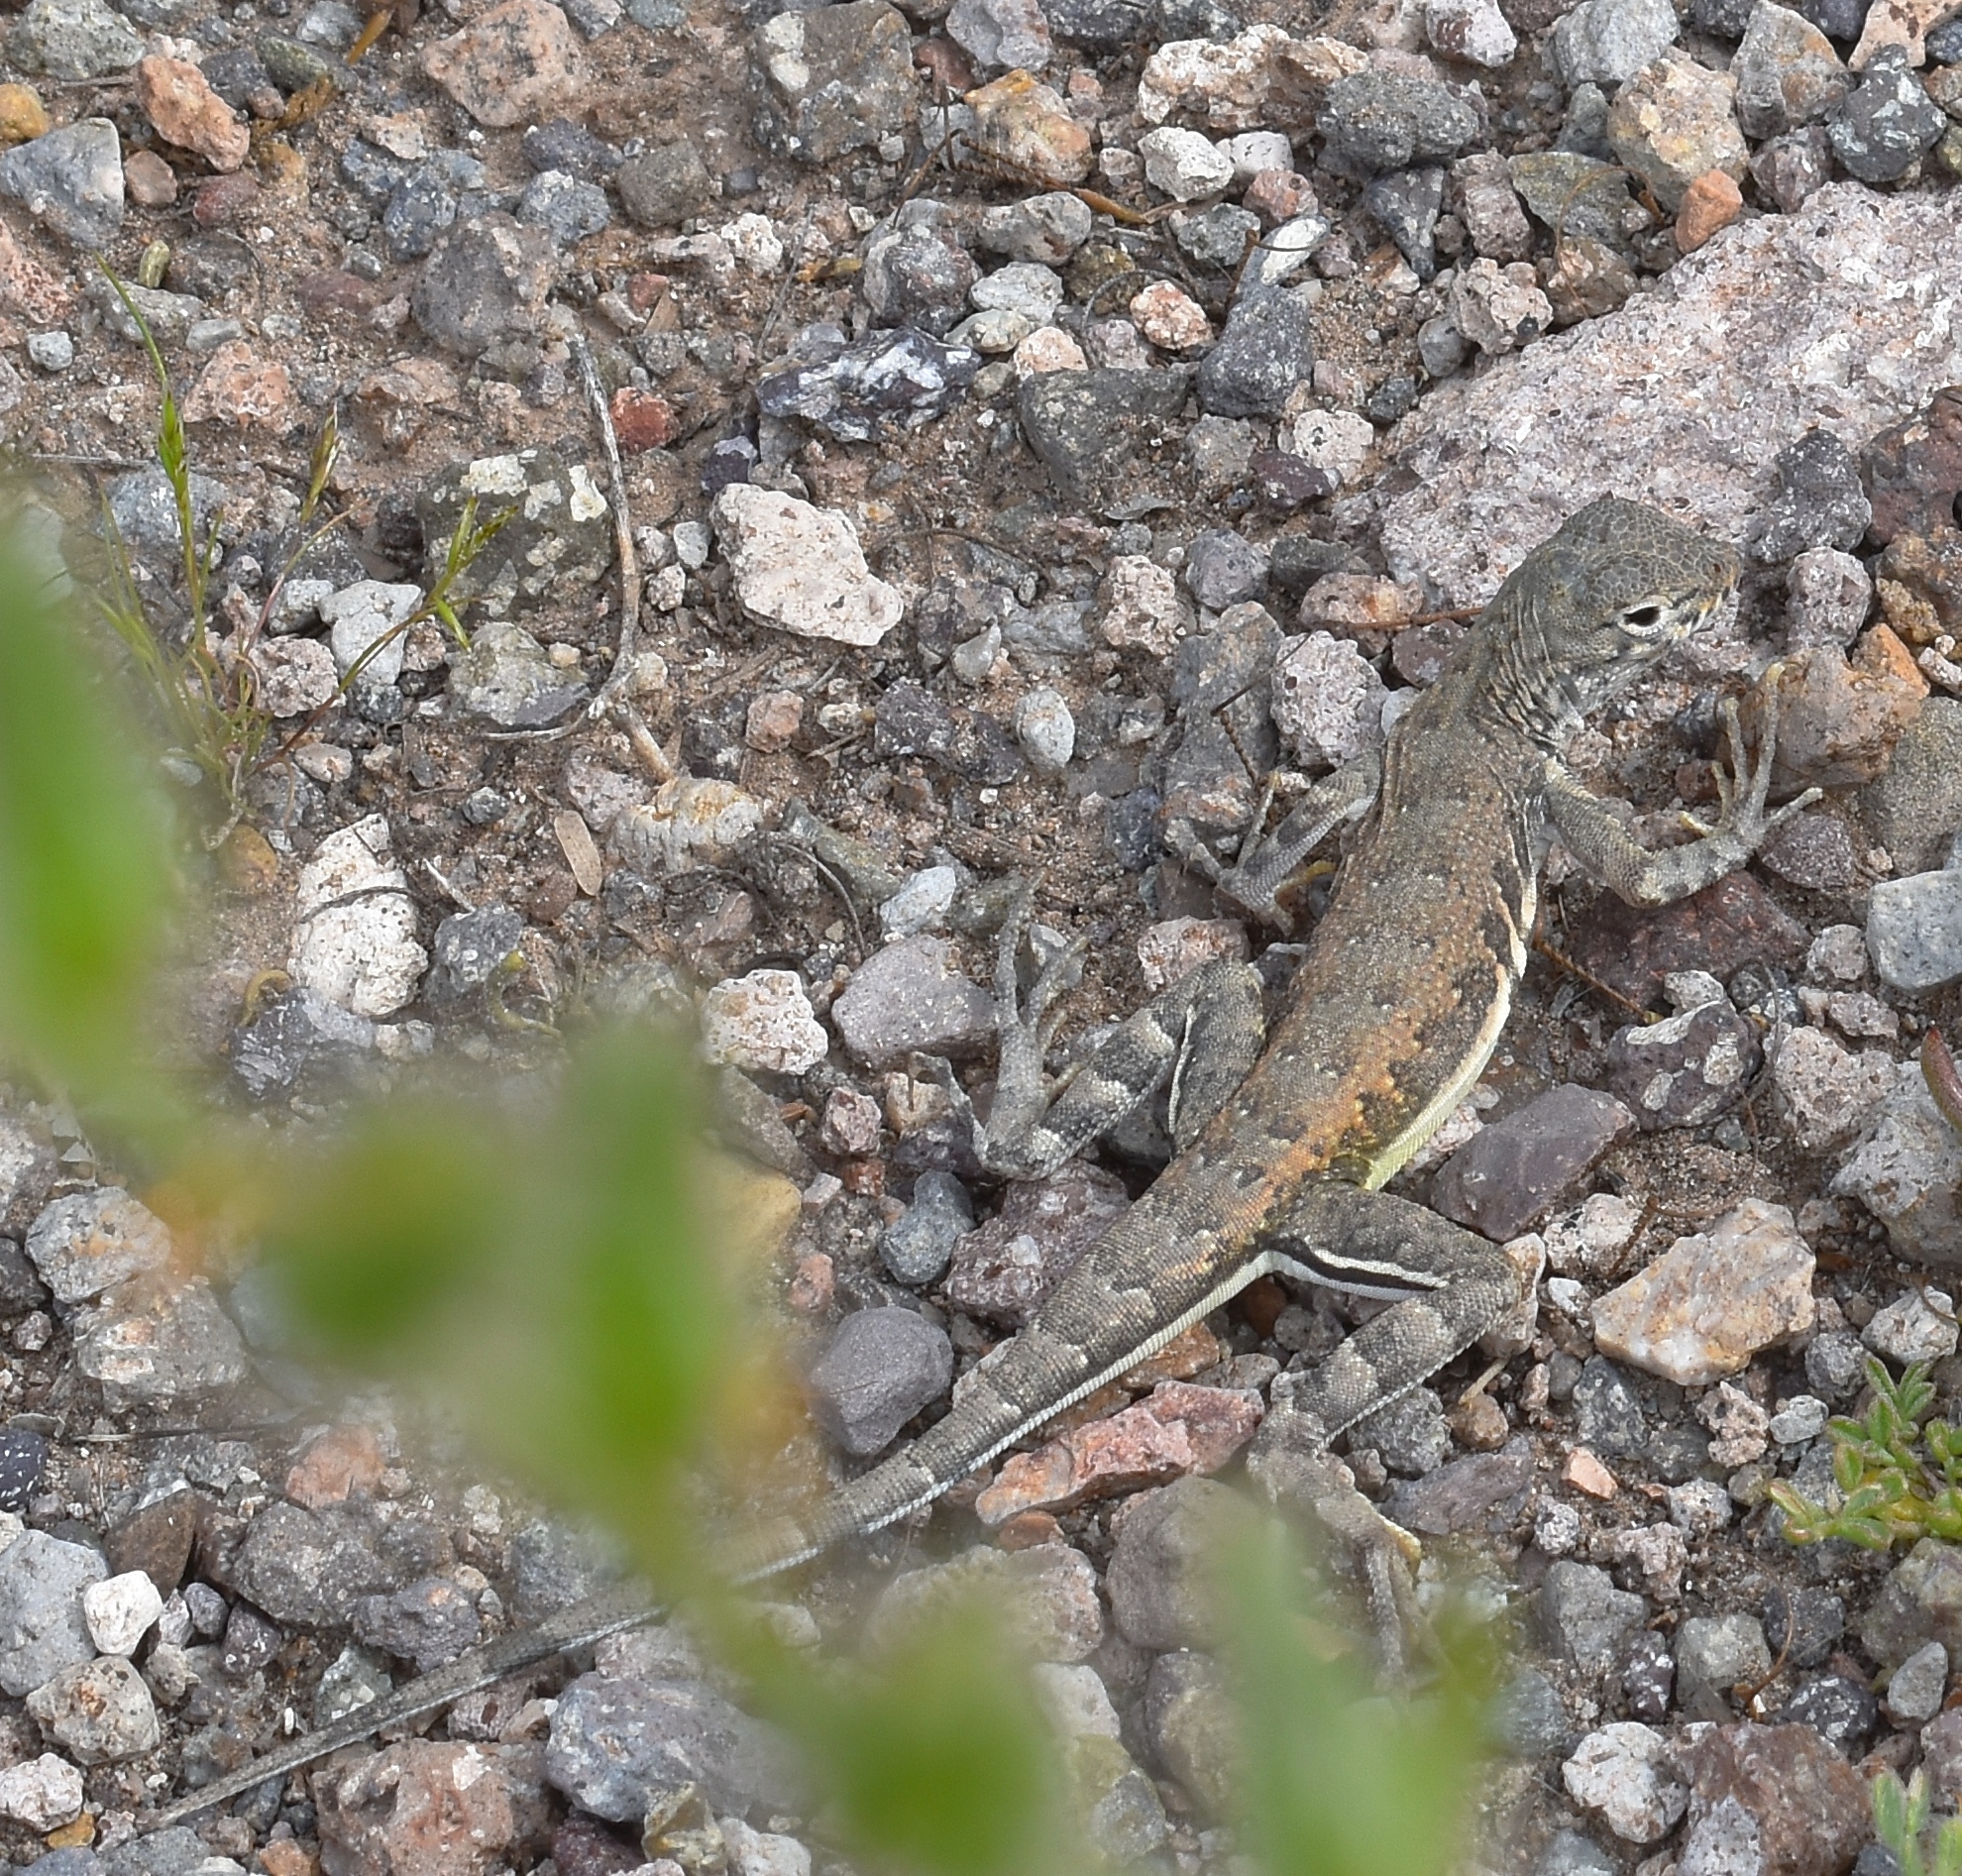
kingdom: Animalia
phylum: Chordata
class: Squamata
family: Phrynosomatidae
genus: Callisaurus
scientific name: Callisaurus draconoides
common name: Zebra-tailed lizard
